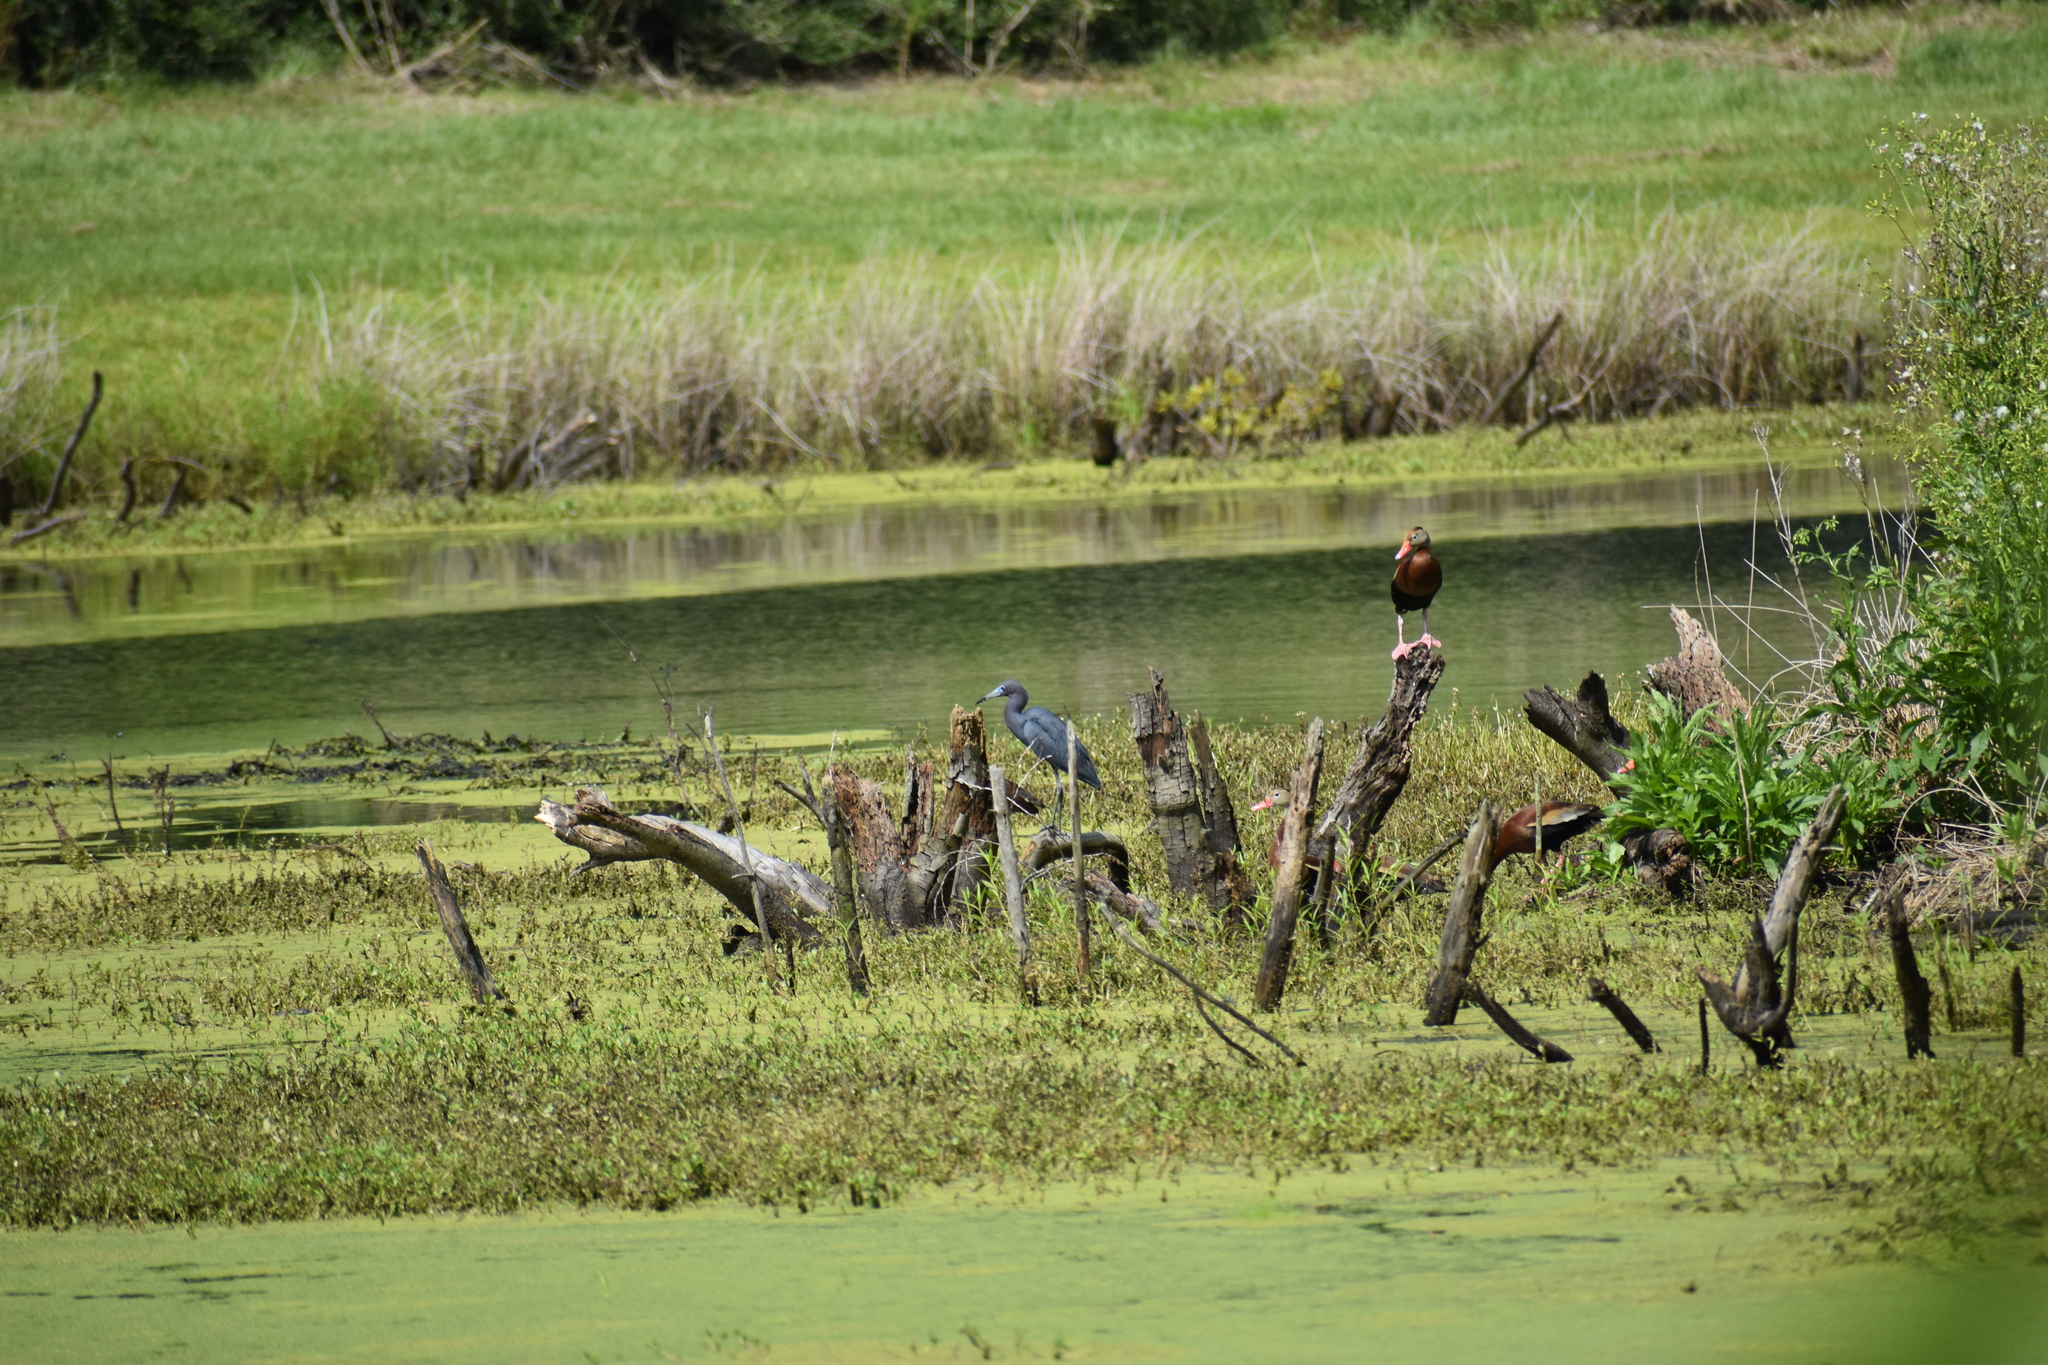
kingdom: Animalia
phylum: Chordata
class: Aves
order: Pelecaniformes
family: Ardeidae
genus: Egretta
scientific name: Egretta caerulea
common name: Little blue heron
